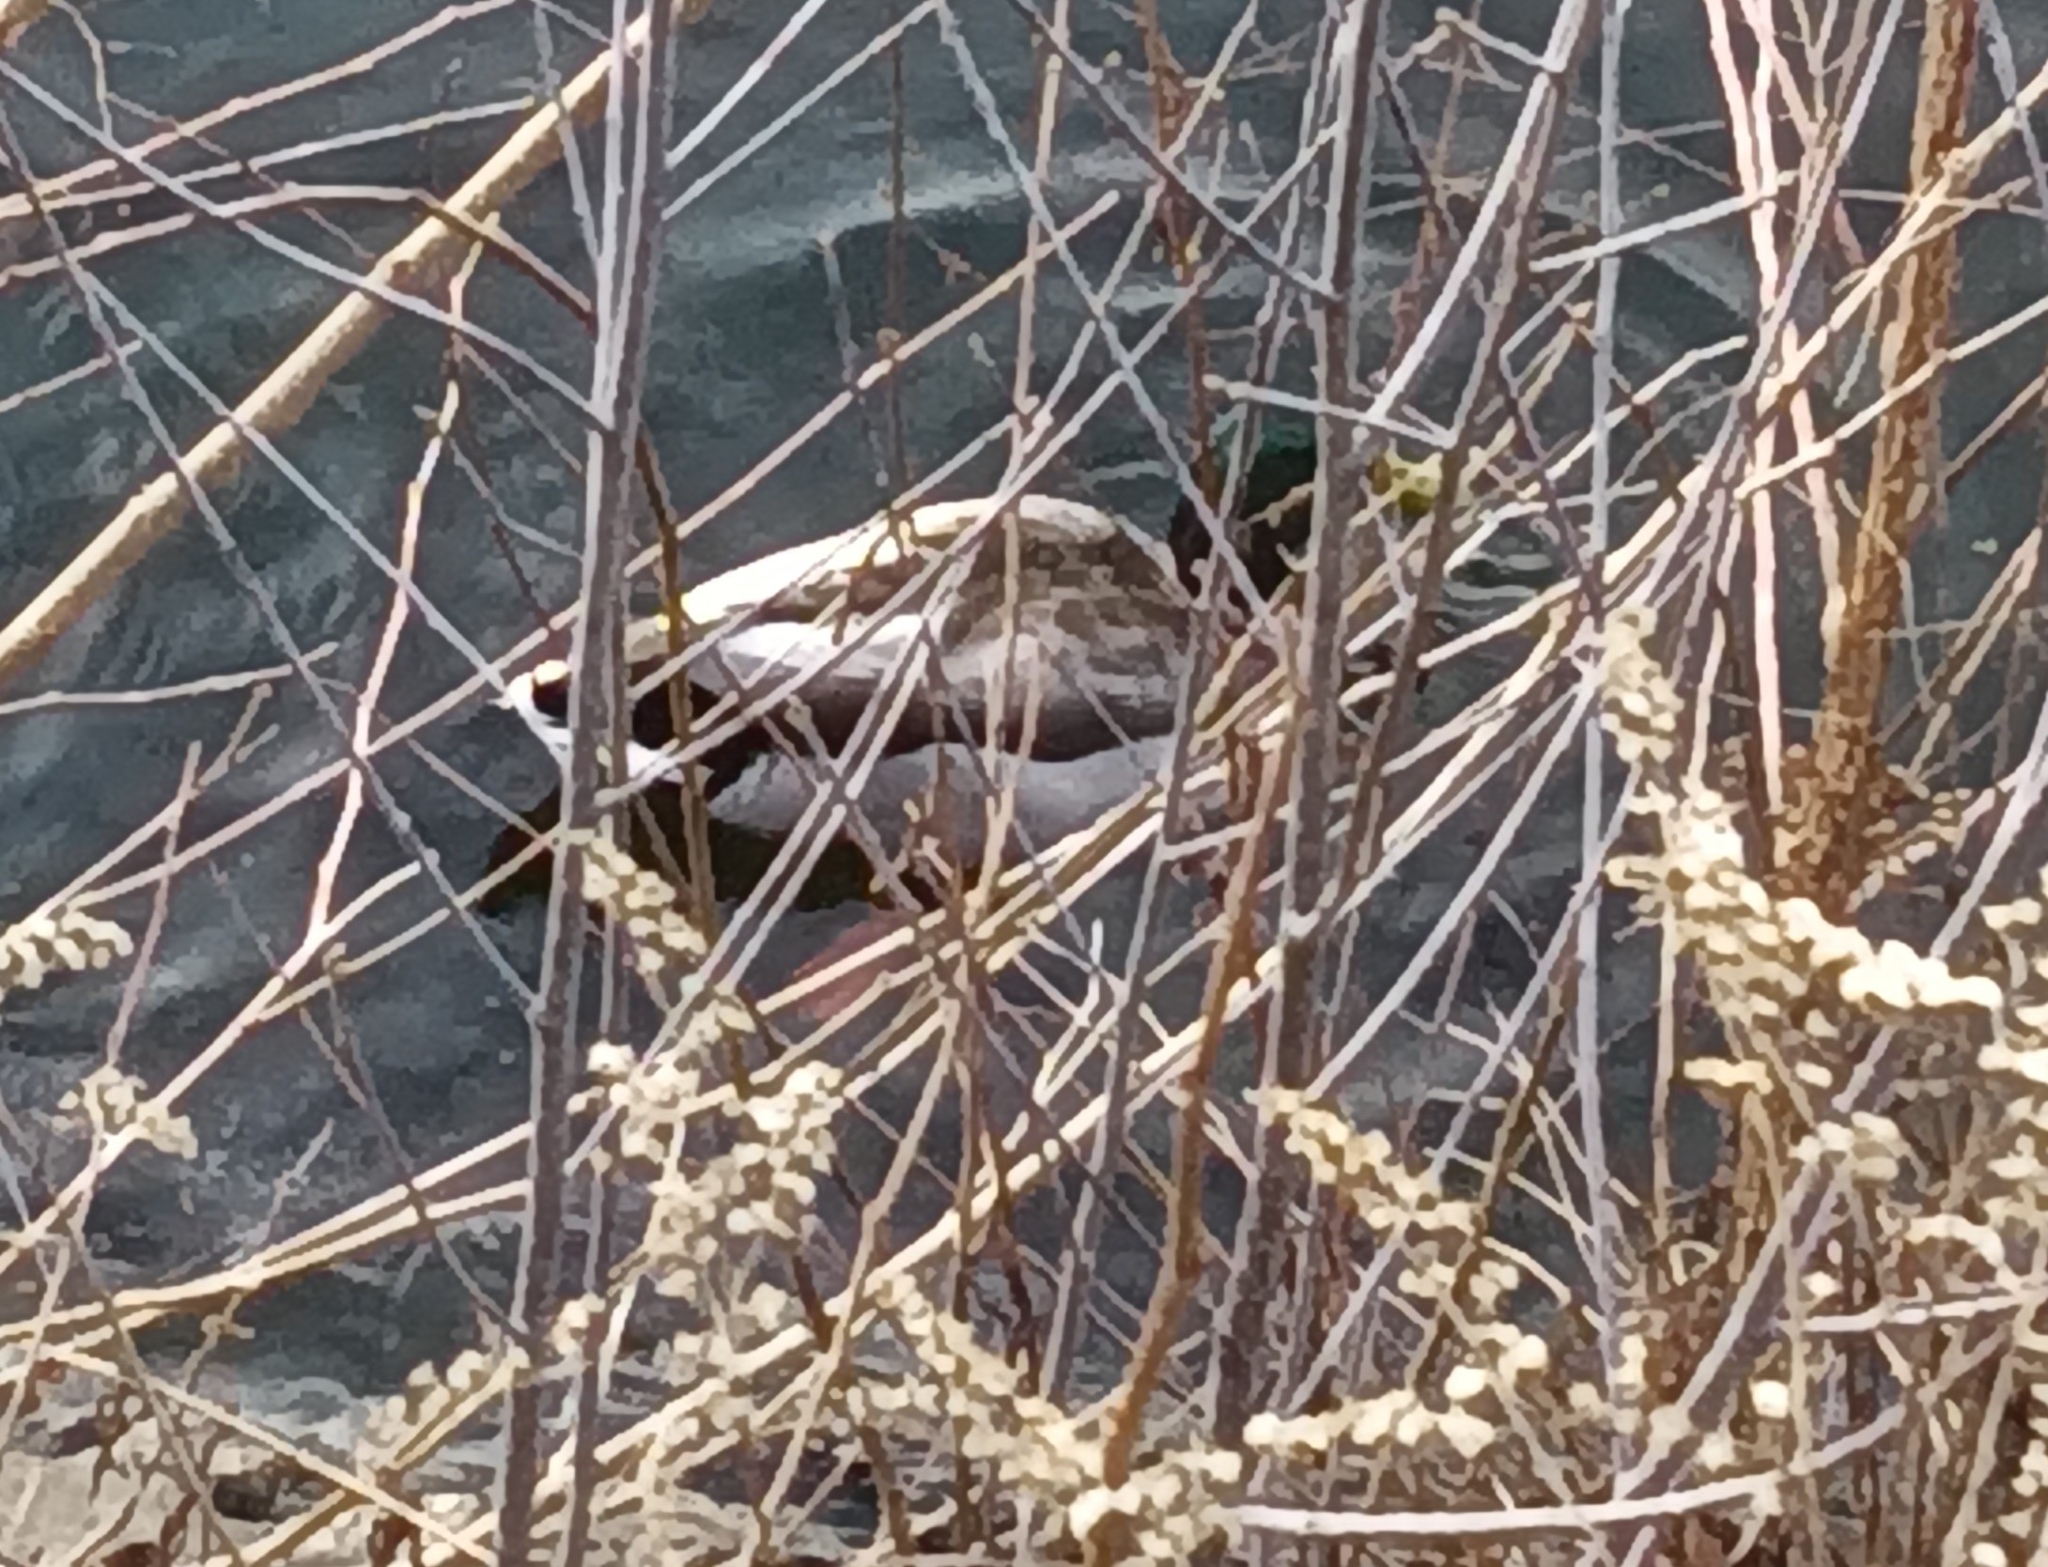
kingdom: Animalia
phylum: Chordata
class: Aves
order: Anseriformes
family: Anatidae
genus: Anas
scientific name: Anas platyrhynchos
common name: Mallard
